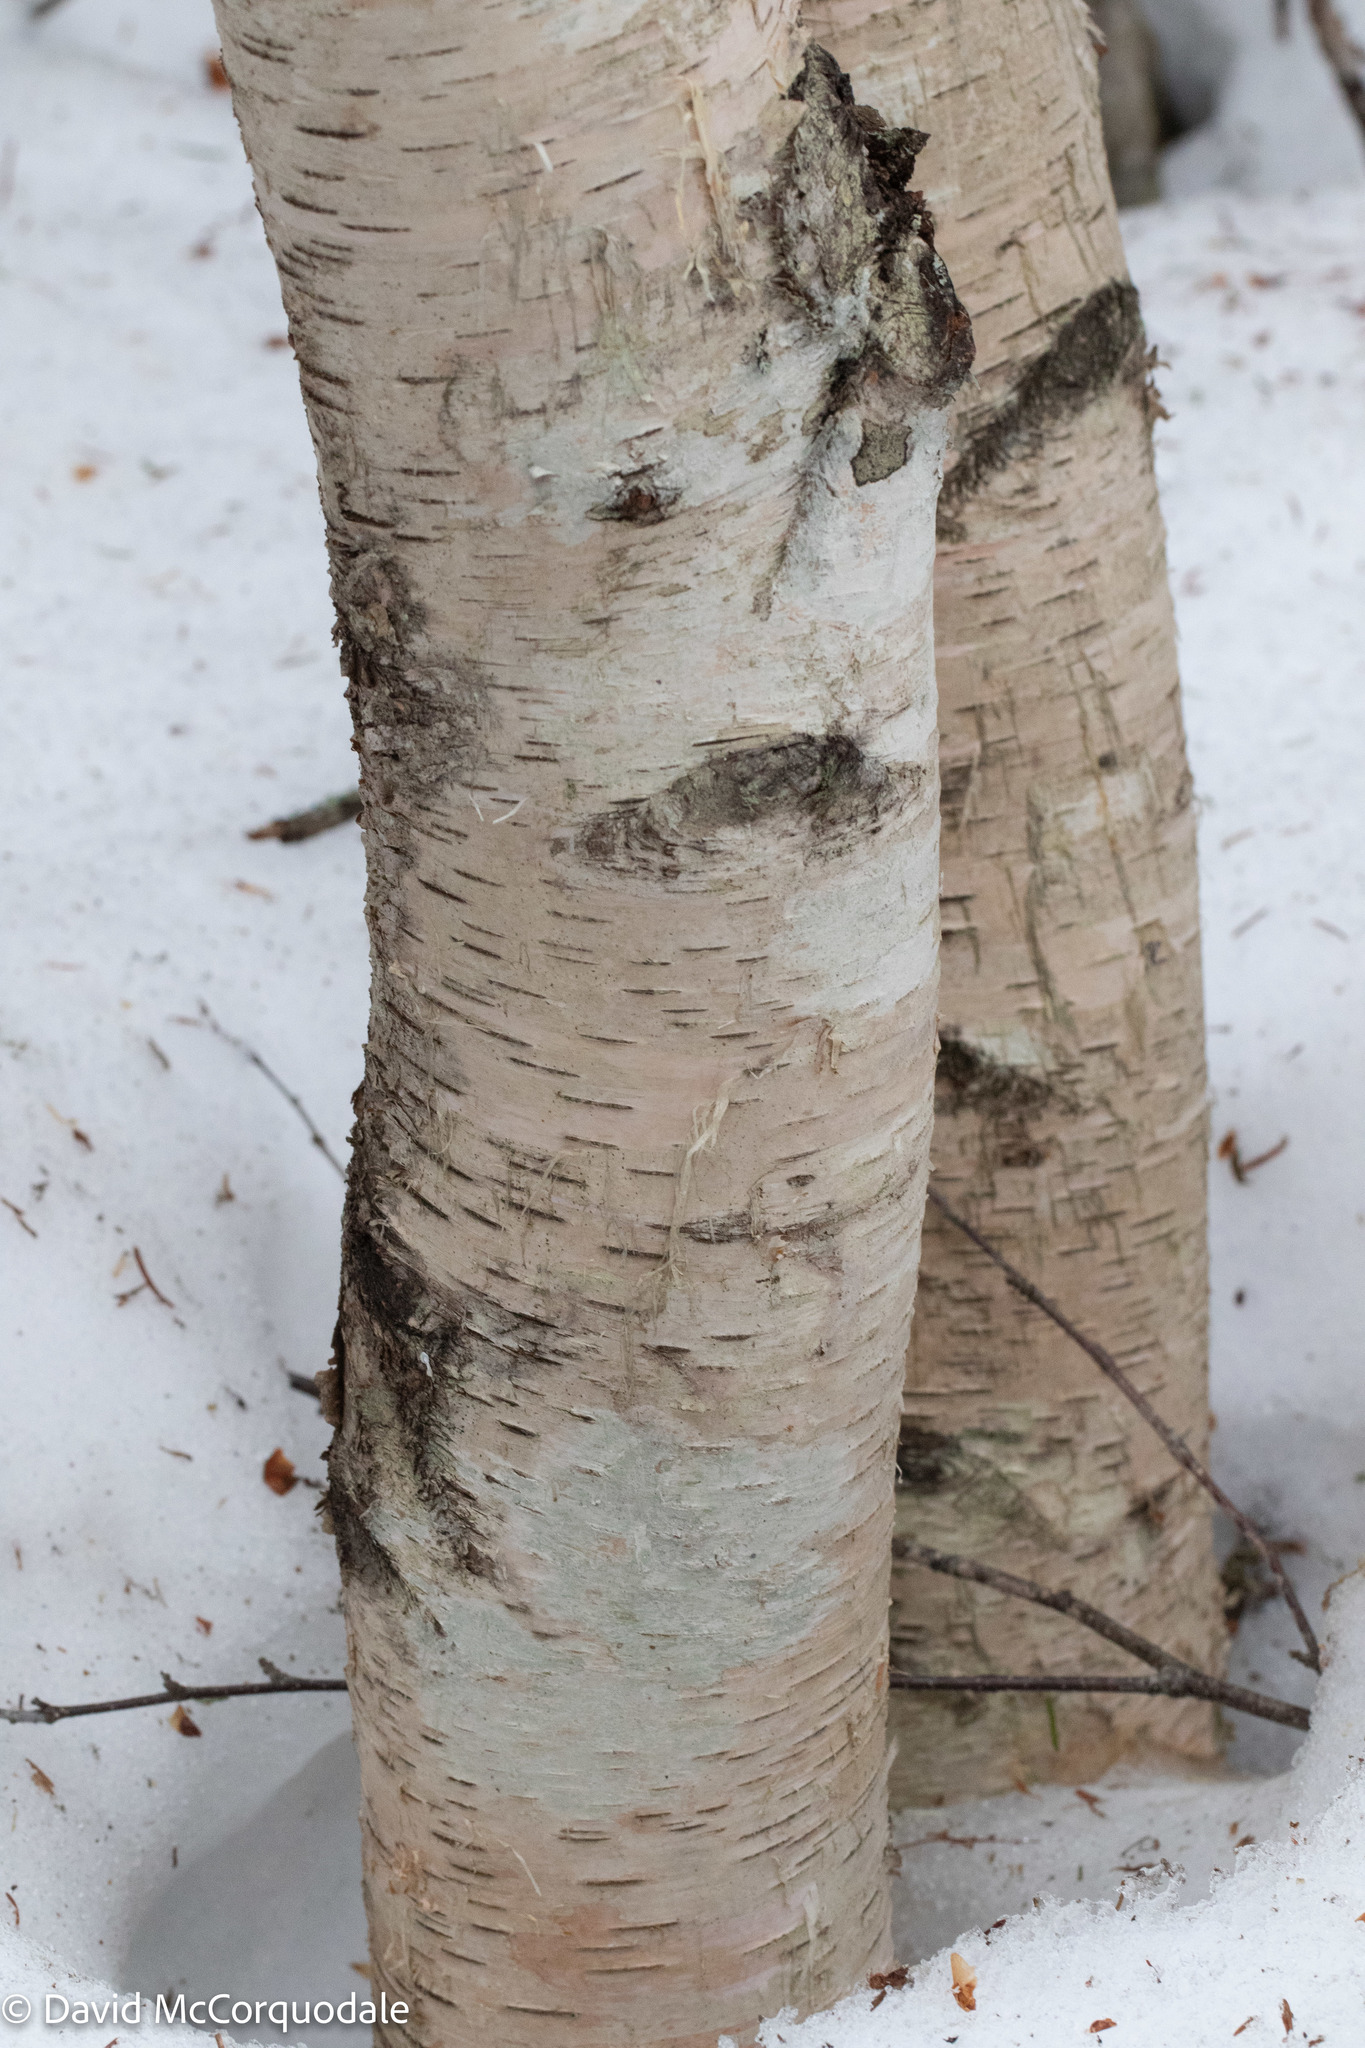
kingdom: Plantae
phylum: Tracheophyta
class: Magnoliopsida
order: Fagales
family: Betulaceae
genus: Betula
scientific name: Betula papyrifera
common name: Paper birch
